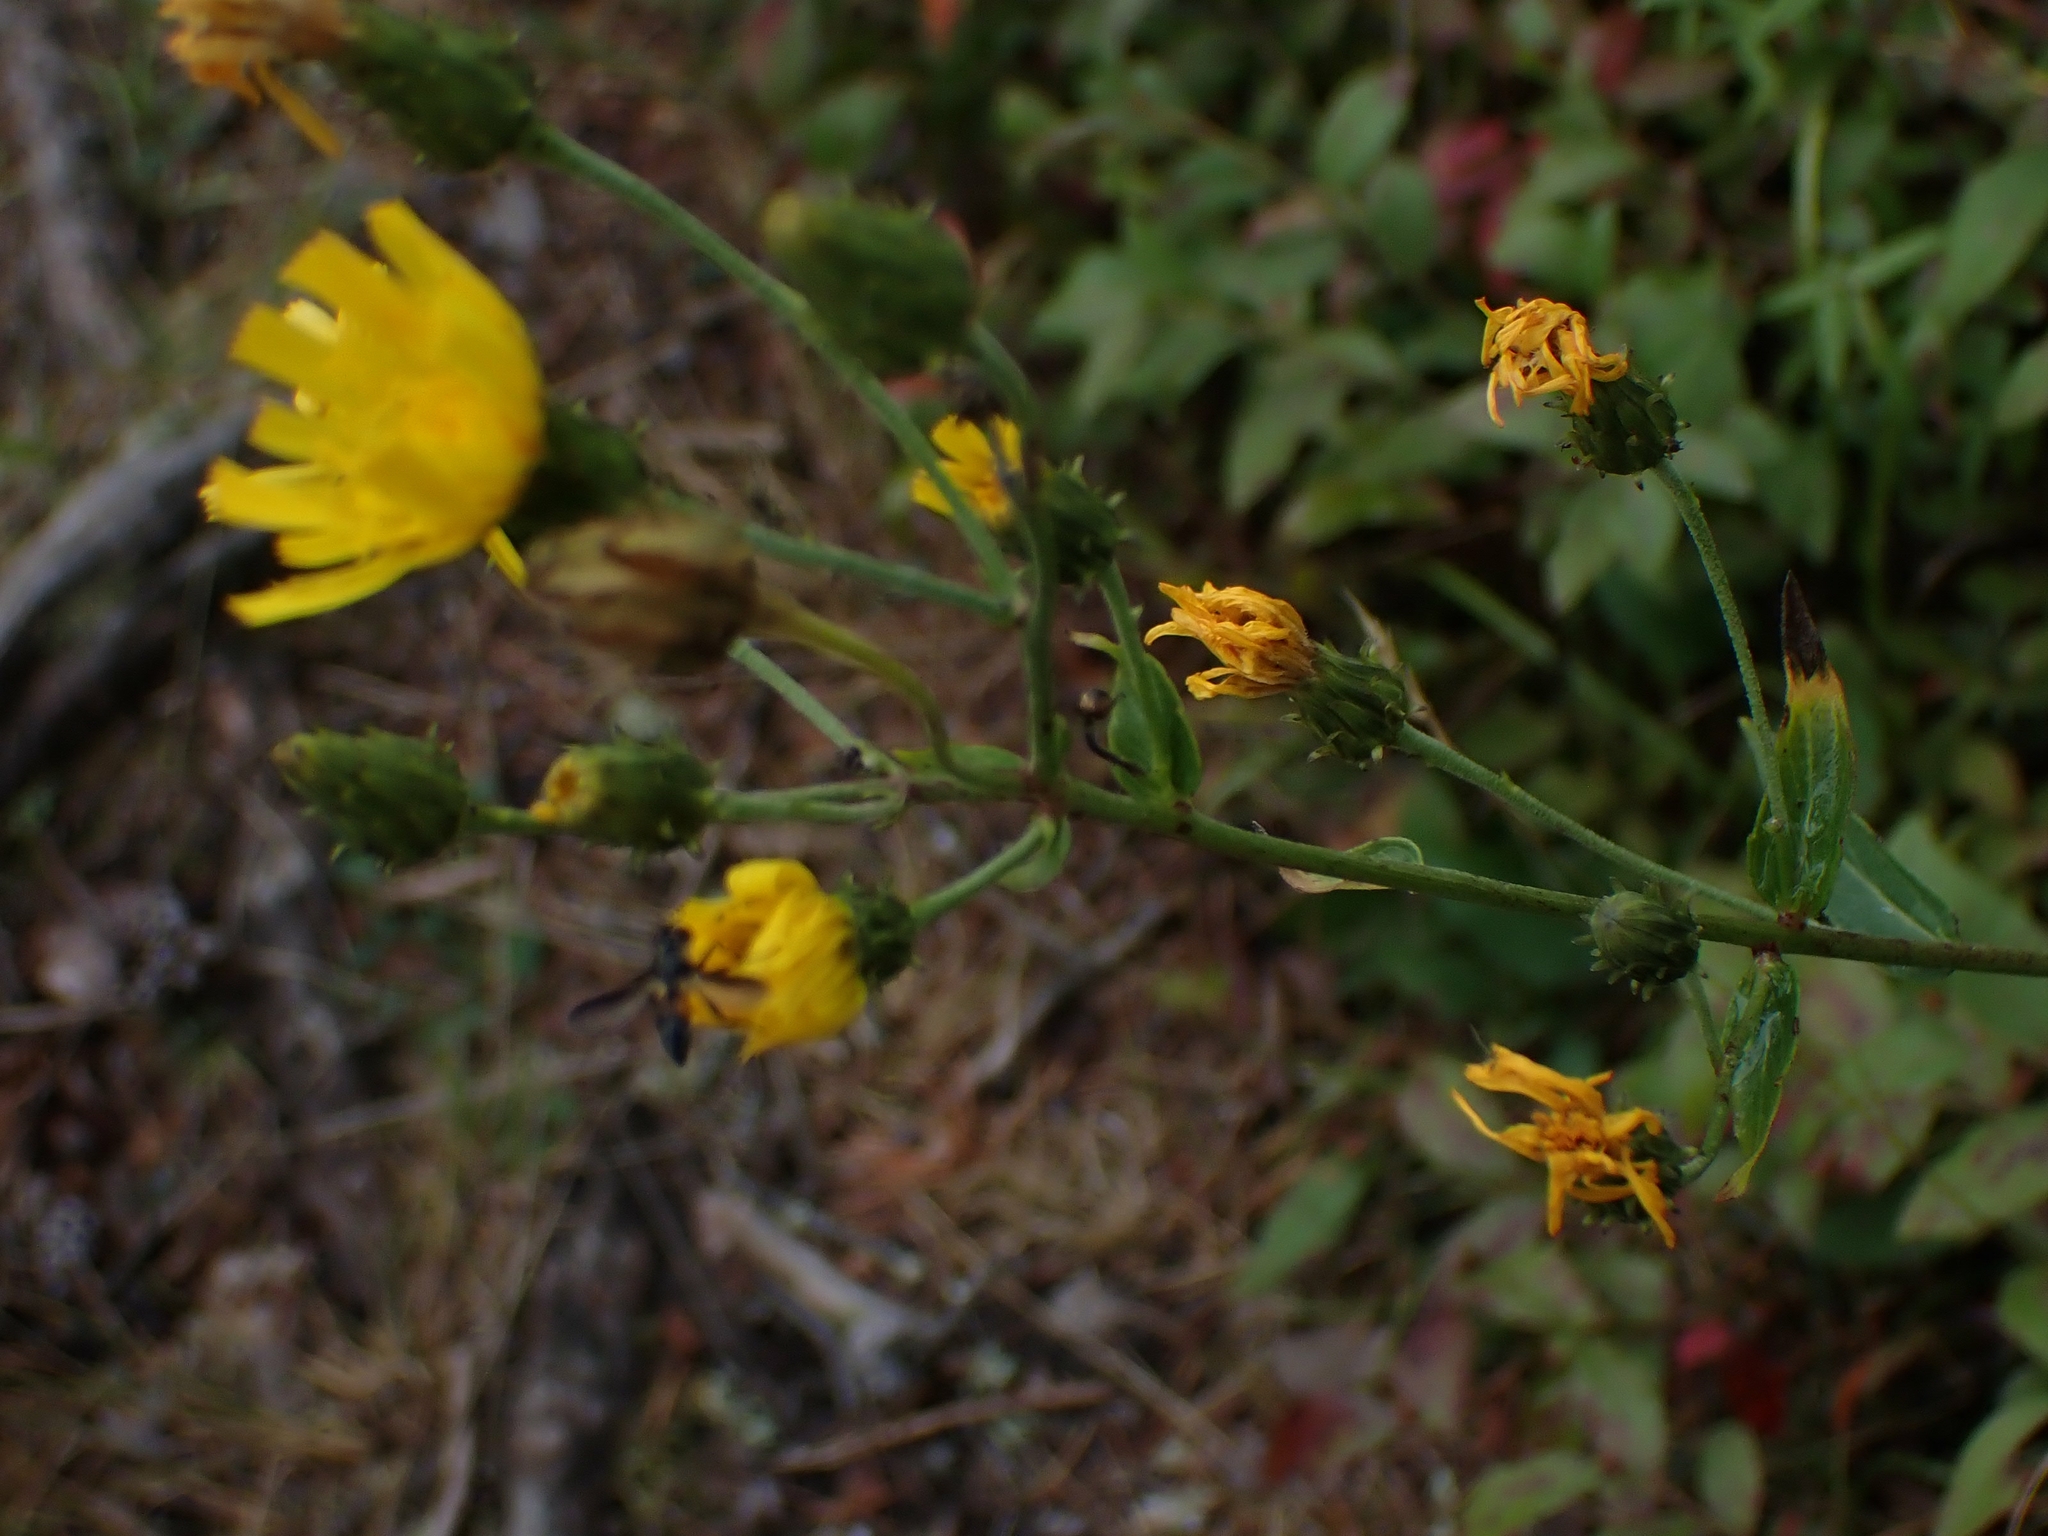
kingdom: Plantae
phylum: Tracheophyta
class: Magnoliopsida
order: Asterales
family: Asteraceae
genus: Hieracium
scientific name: Hieracium umbellatum
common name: Northern hawkweed
